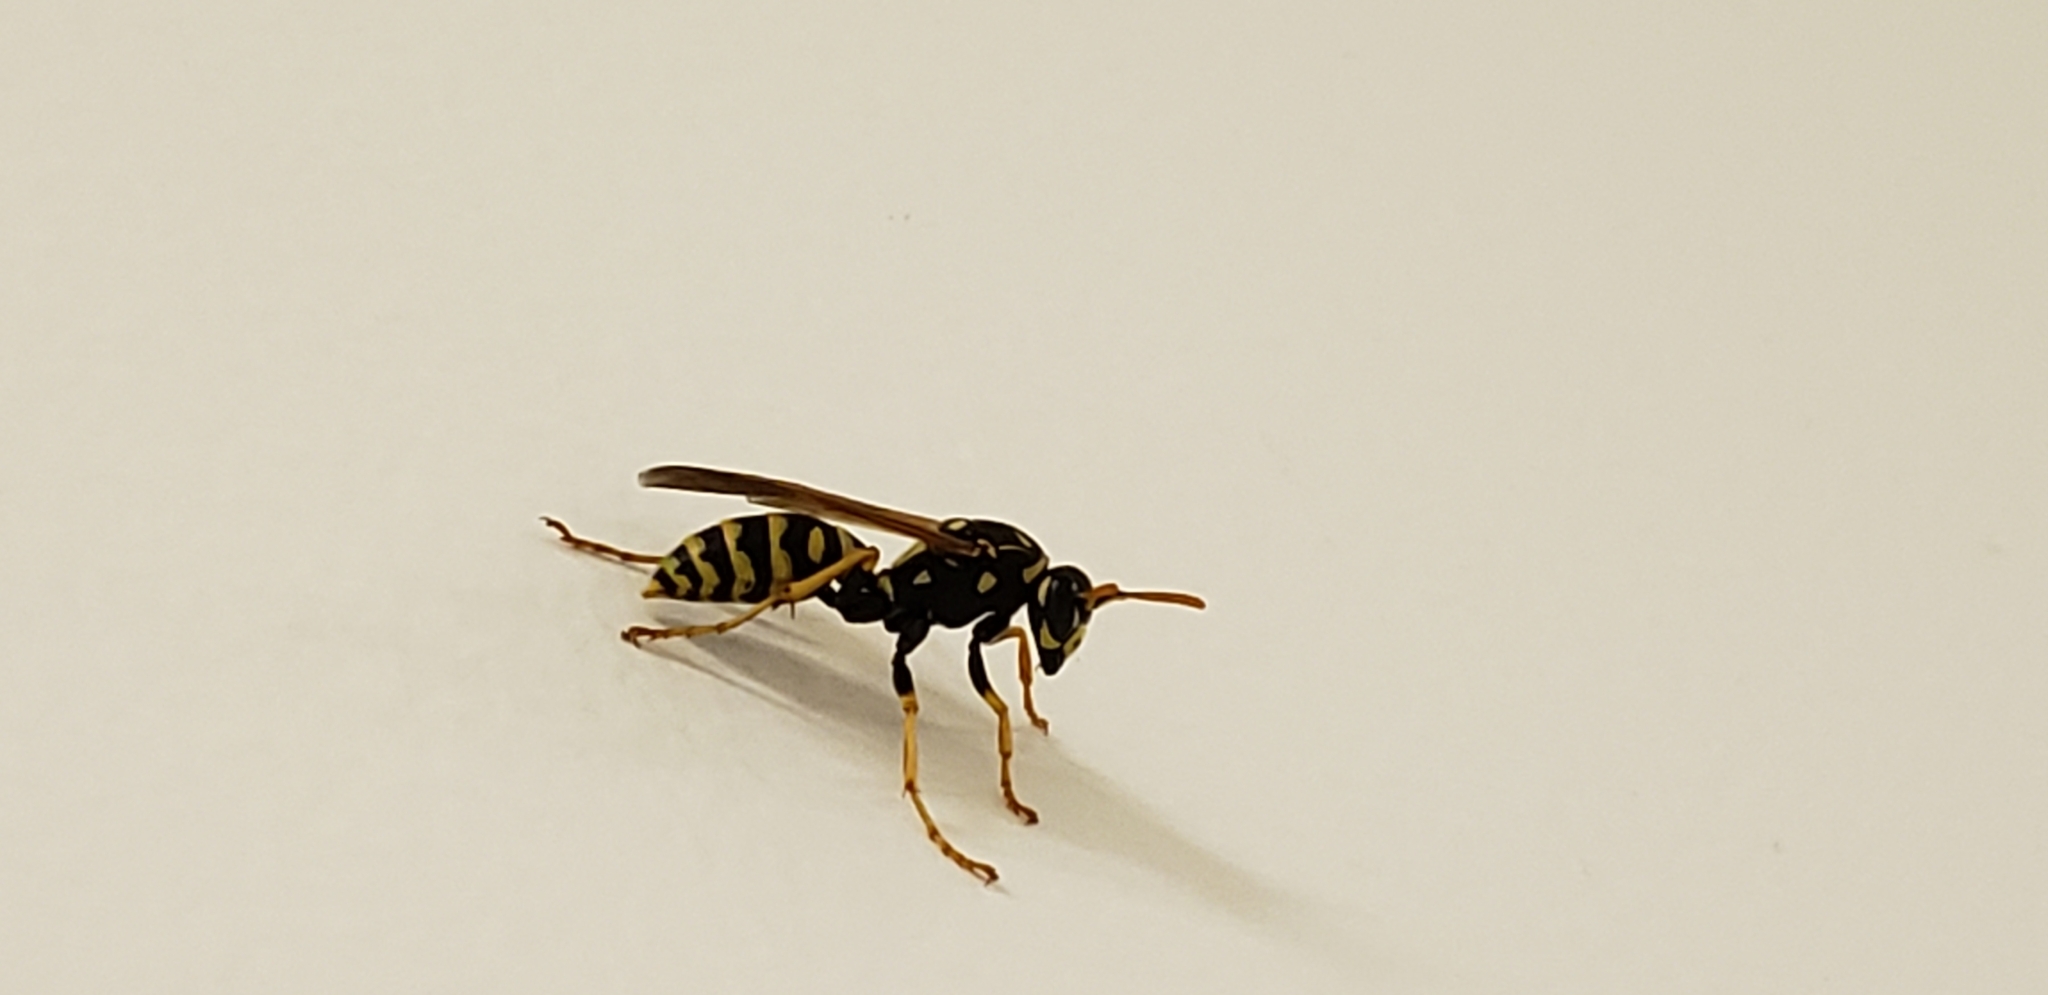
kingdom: Animalia
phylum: Arthropoda
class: Insecta
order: Hymenoptera
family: Eumenidae
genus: Polistes
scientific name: Polistes dominula
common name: Paper wasp
